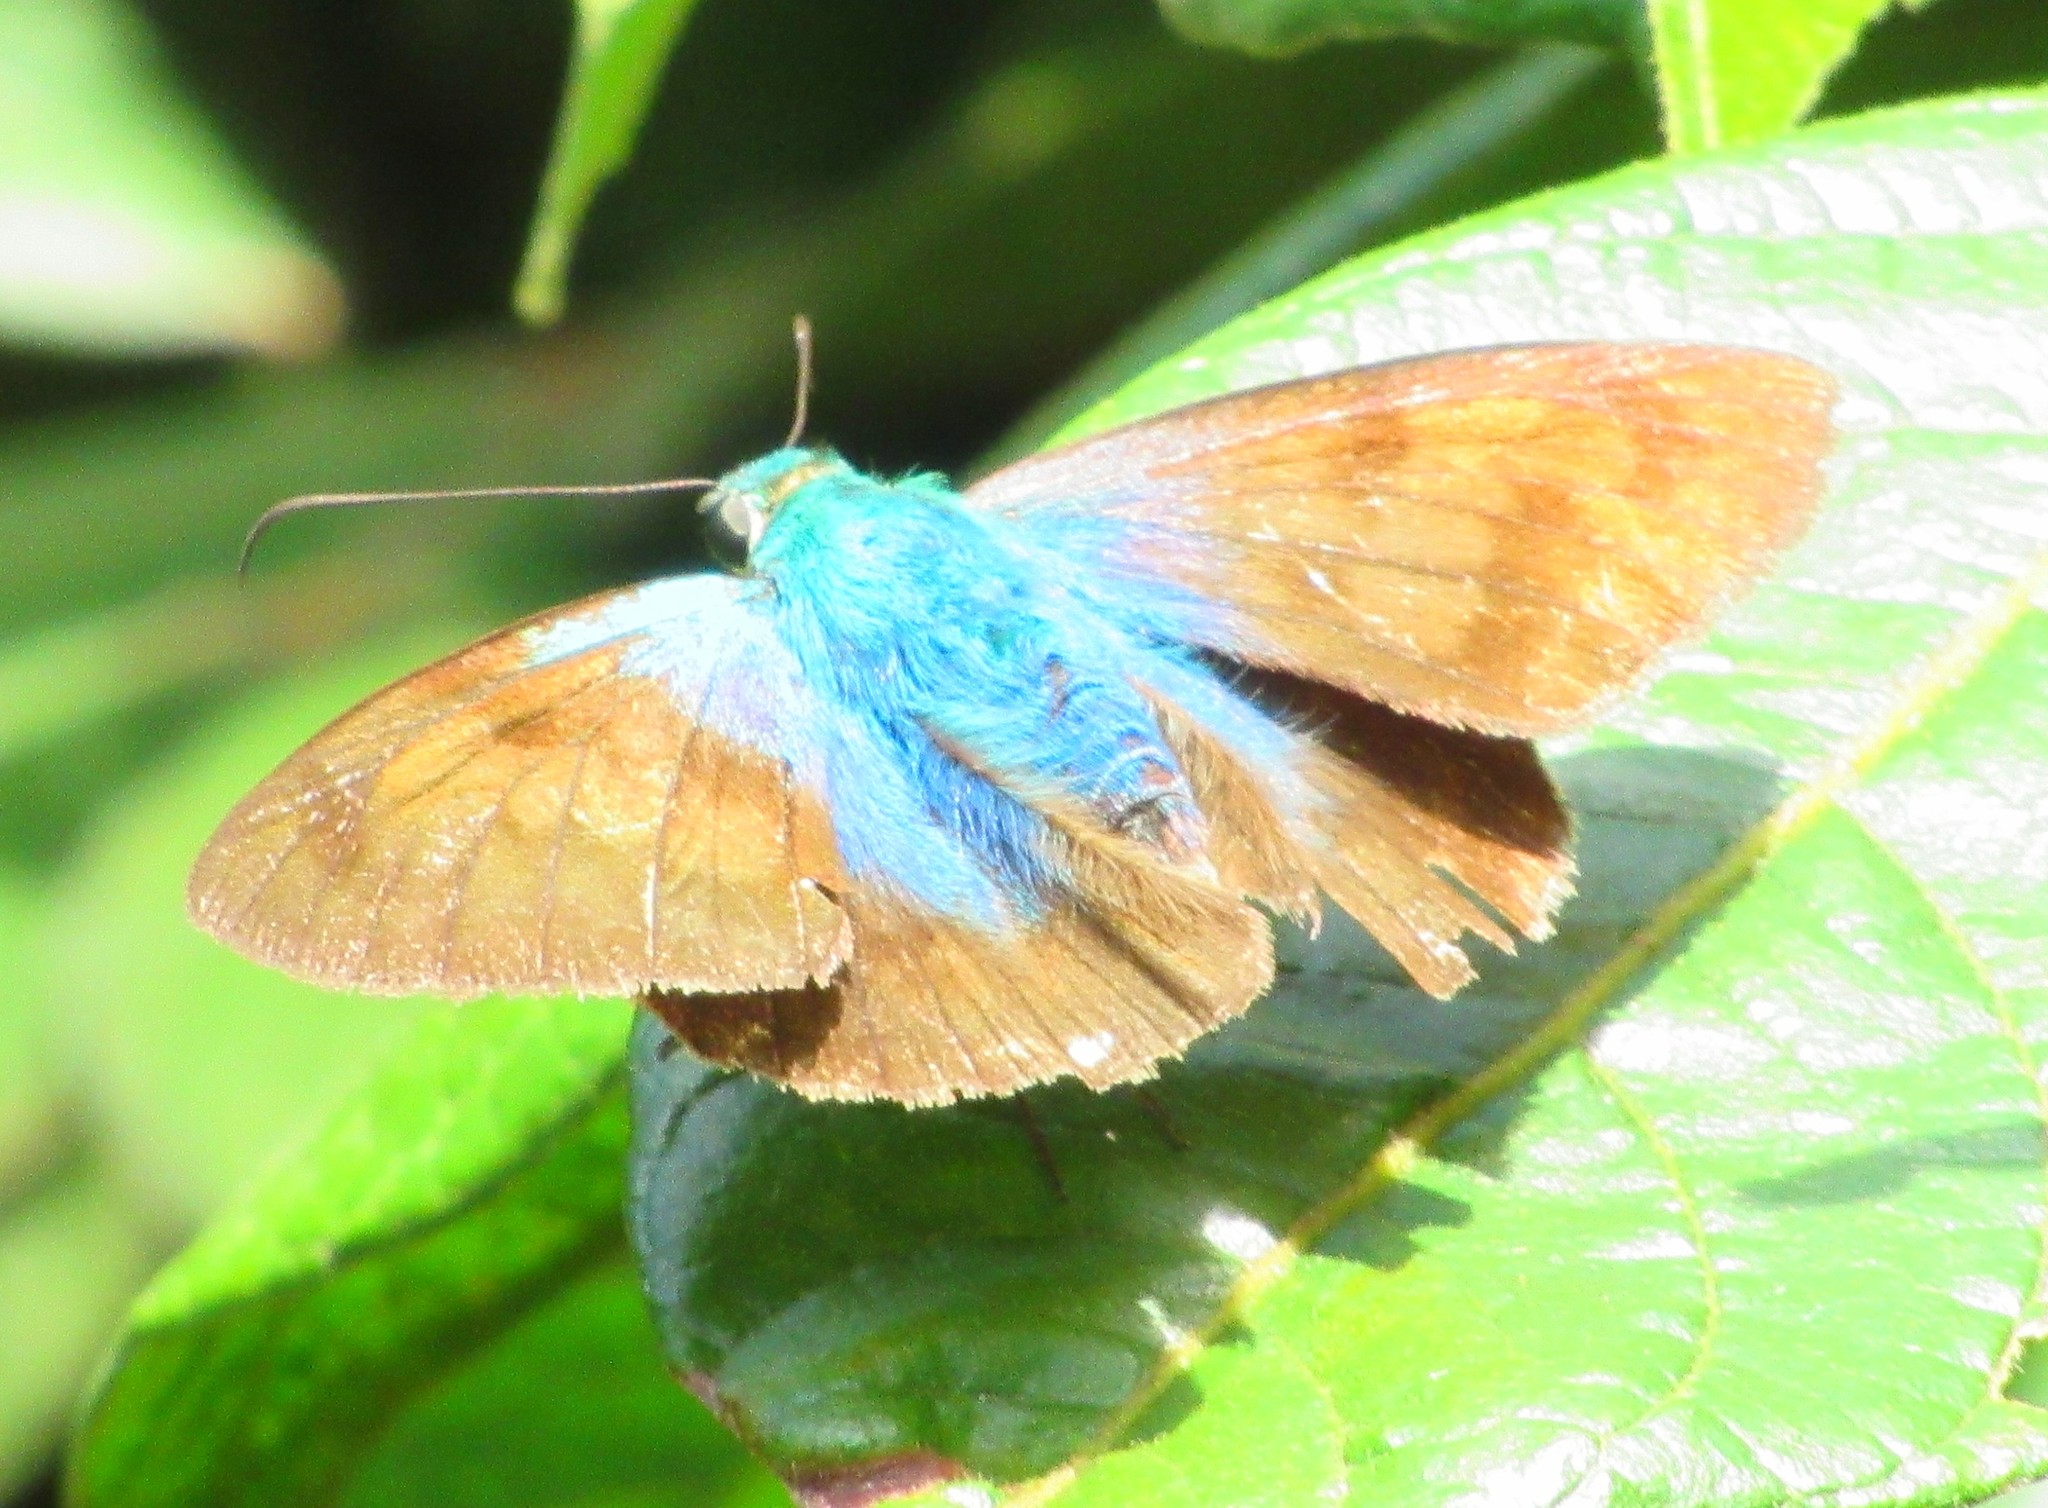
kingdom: Animalia
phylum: Arthropoda
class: Insecta
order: Lepidoptera
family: Hesperiidae
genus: Astraptes
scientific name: Astraptes alector
